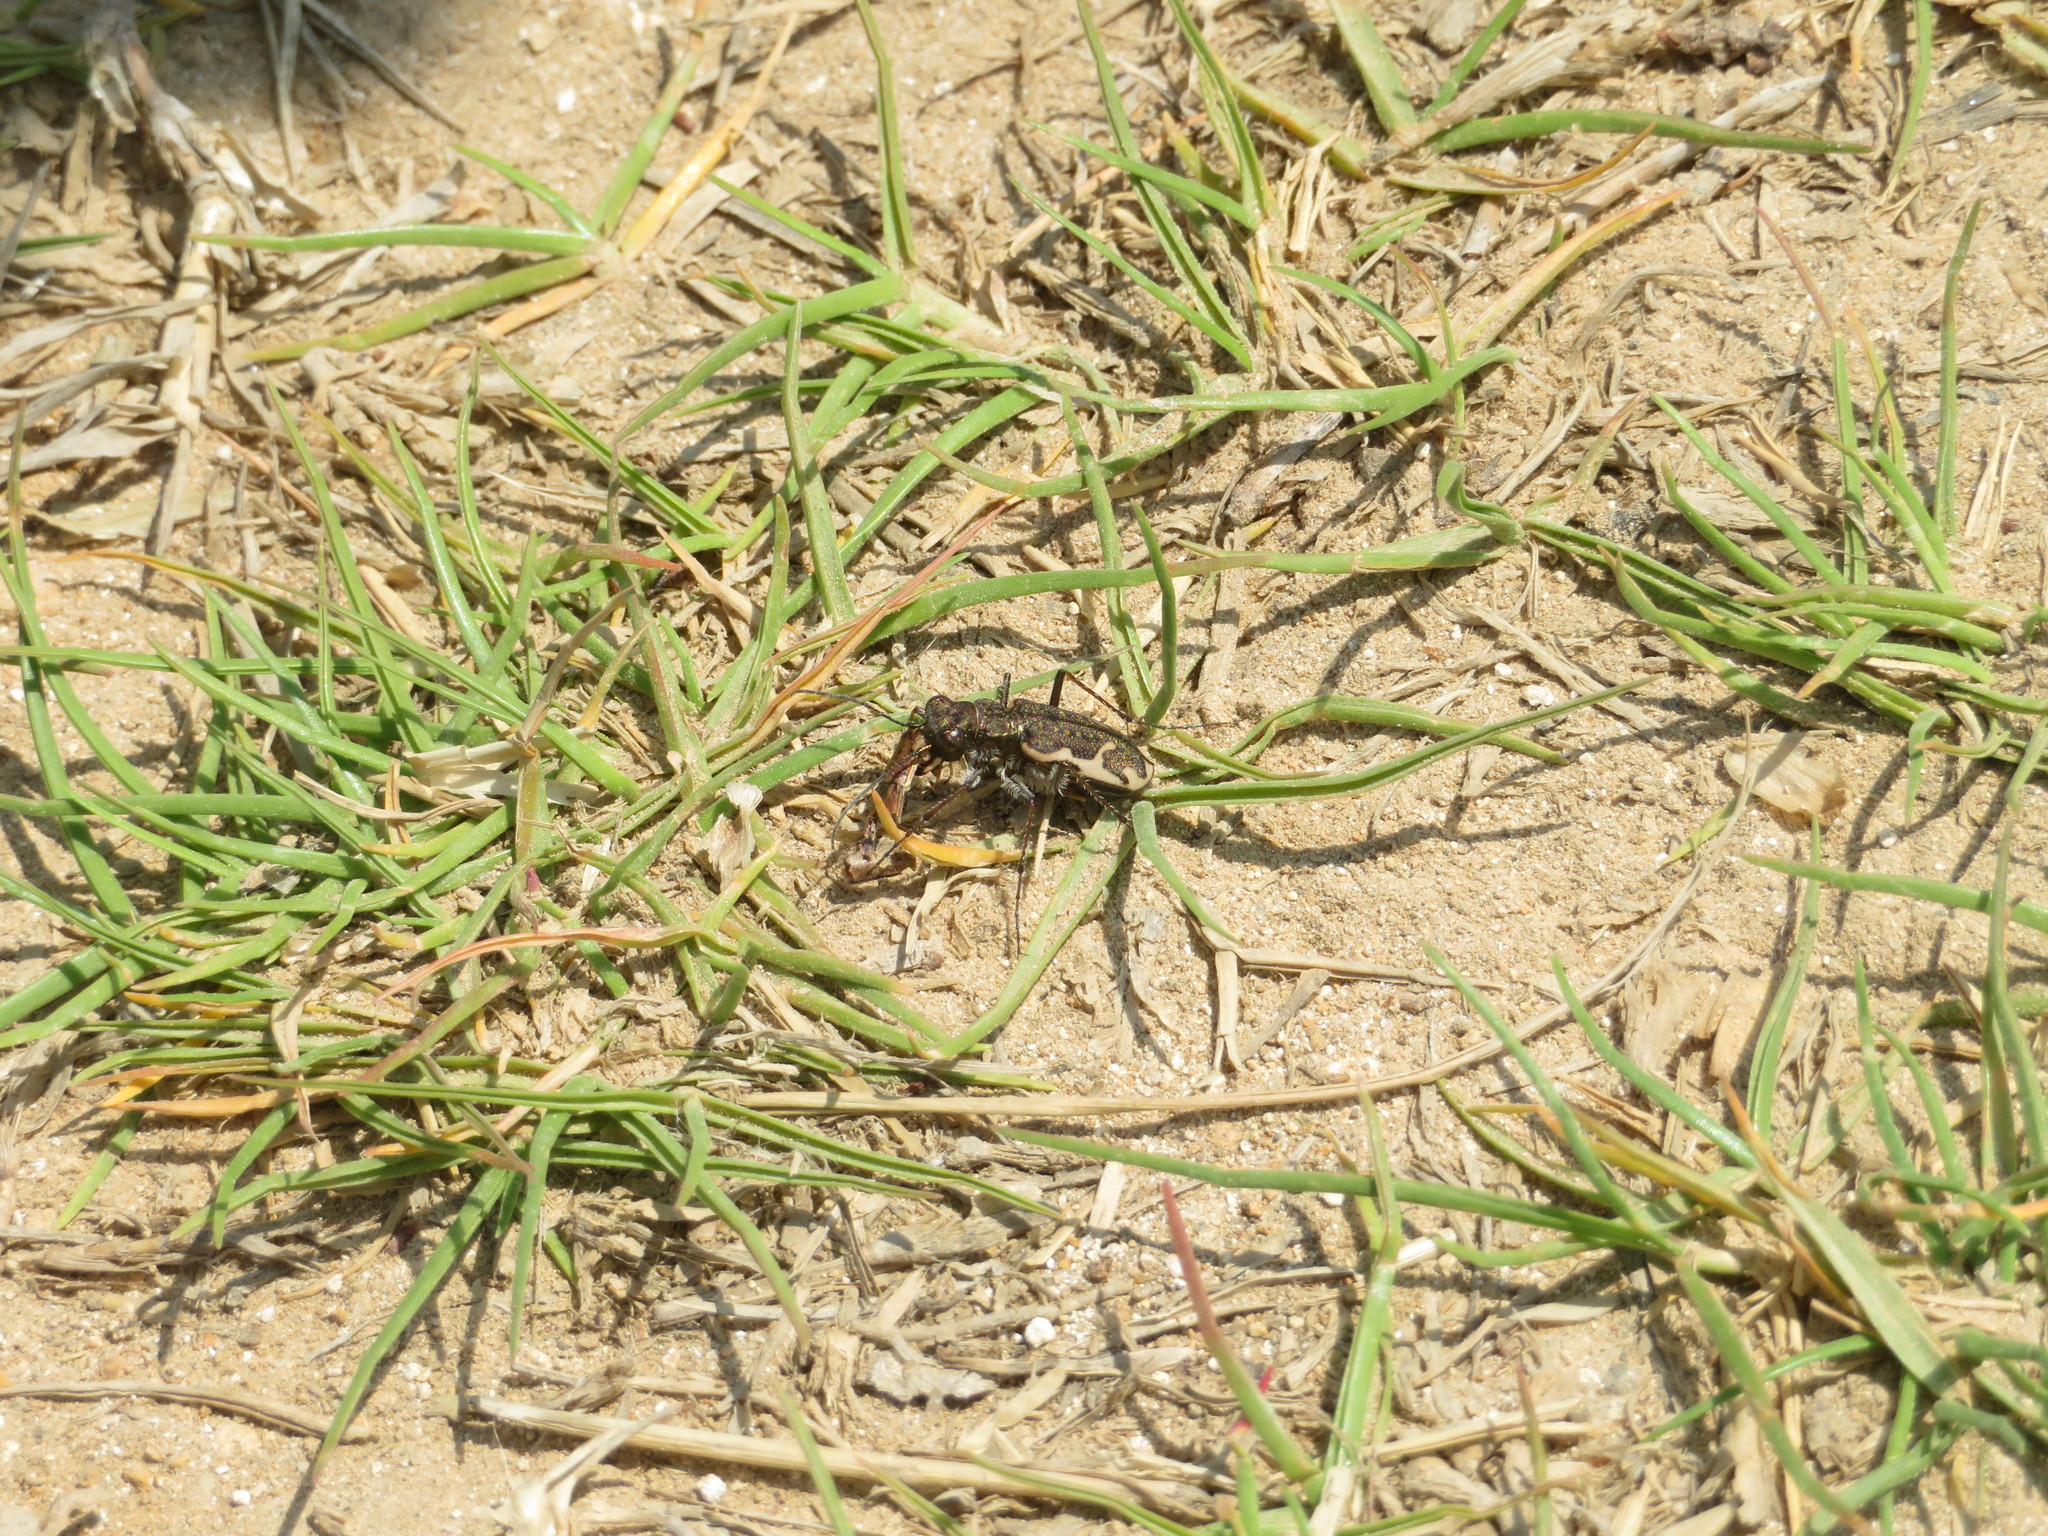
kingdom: Animalia
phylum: Arthropoda
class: Insecta
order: Coleoptera
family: Carabidae
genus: Neocicindela
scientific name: Neocicindela tuberculata
